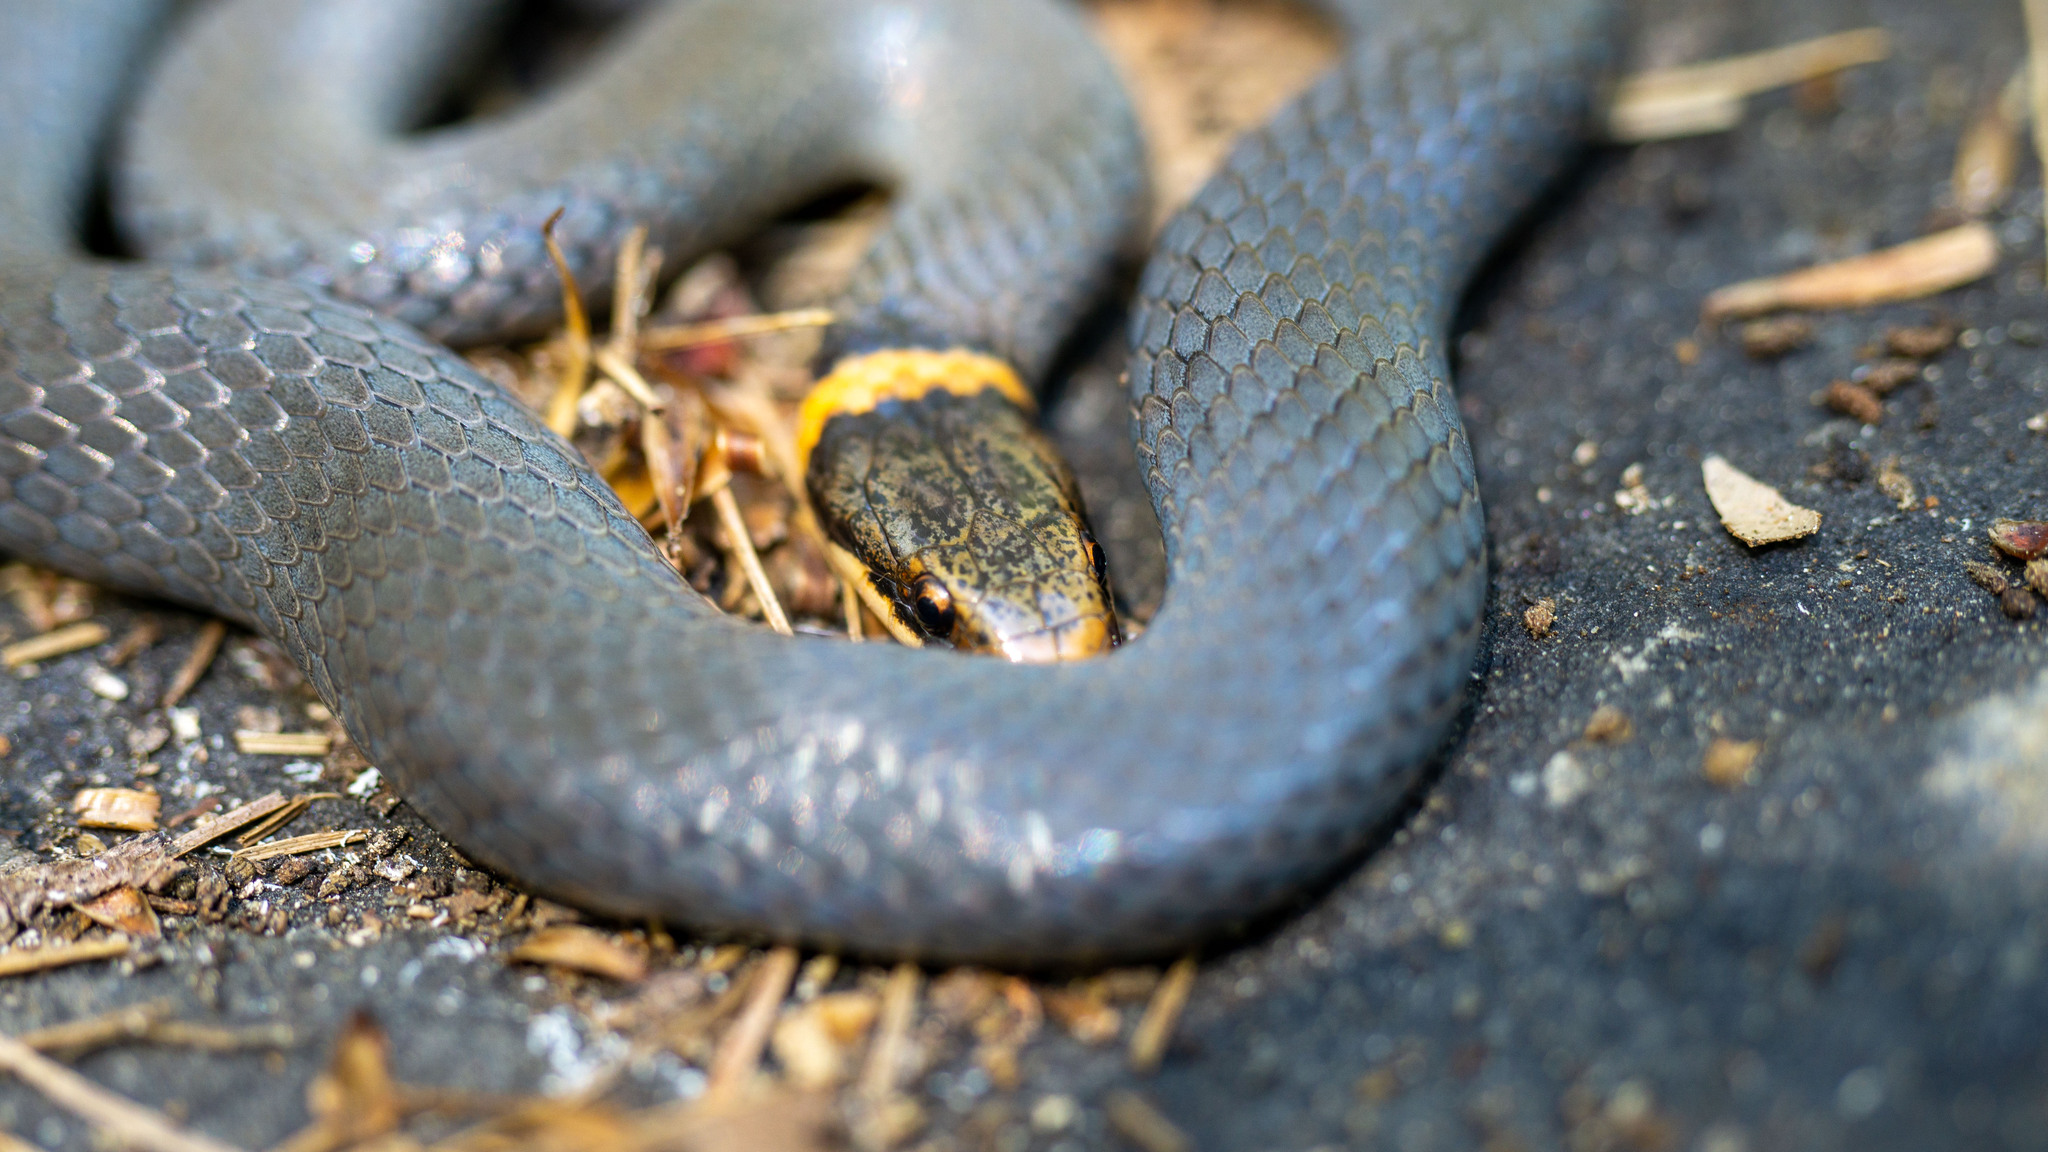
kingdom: Animalia
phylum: Chordata
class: Squamata
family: Colubridae
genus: Diadophis
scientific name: Diadophis punctatus
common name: Ringneck snake
